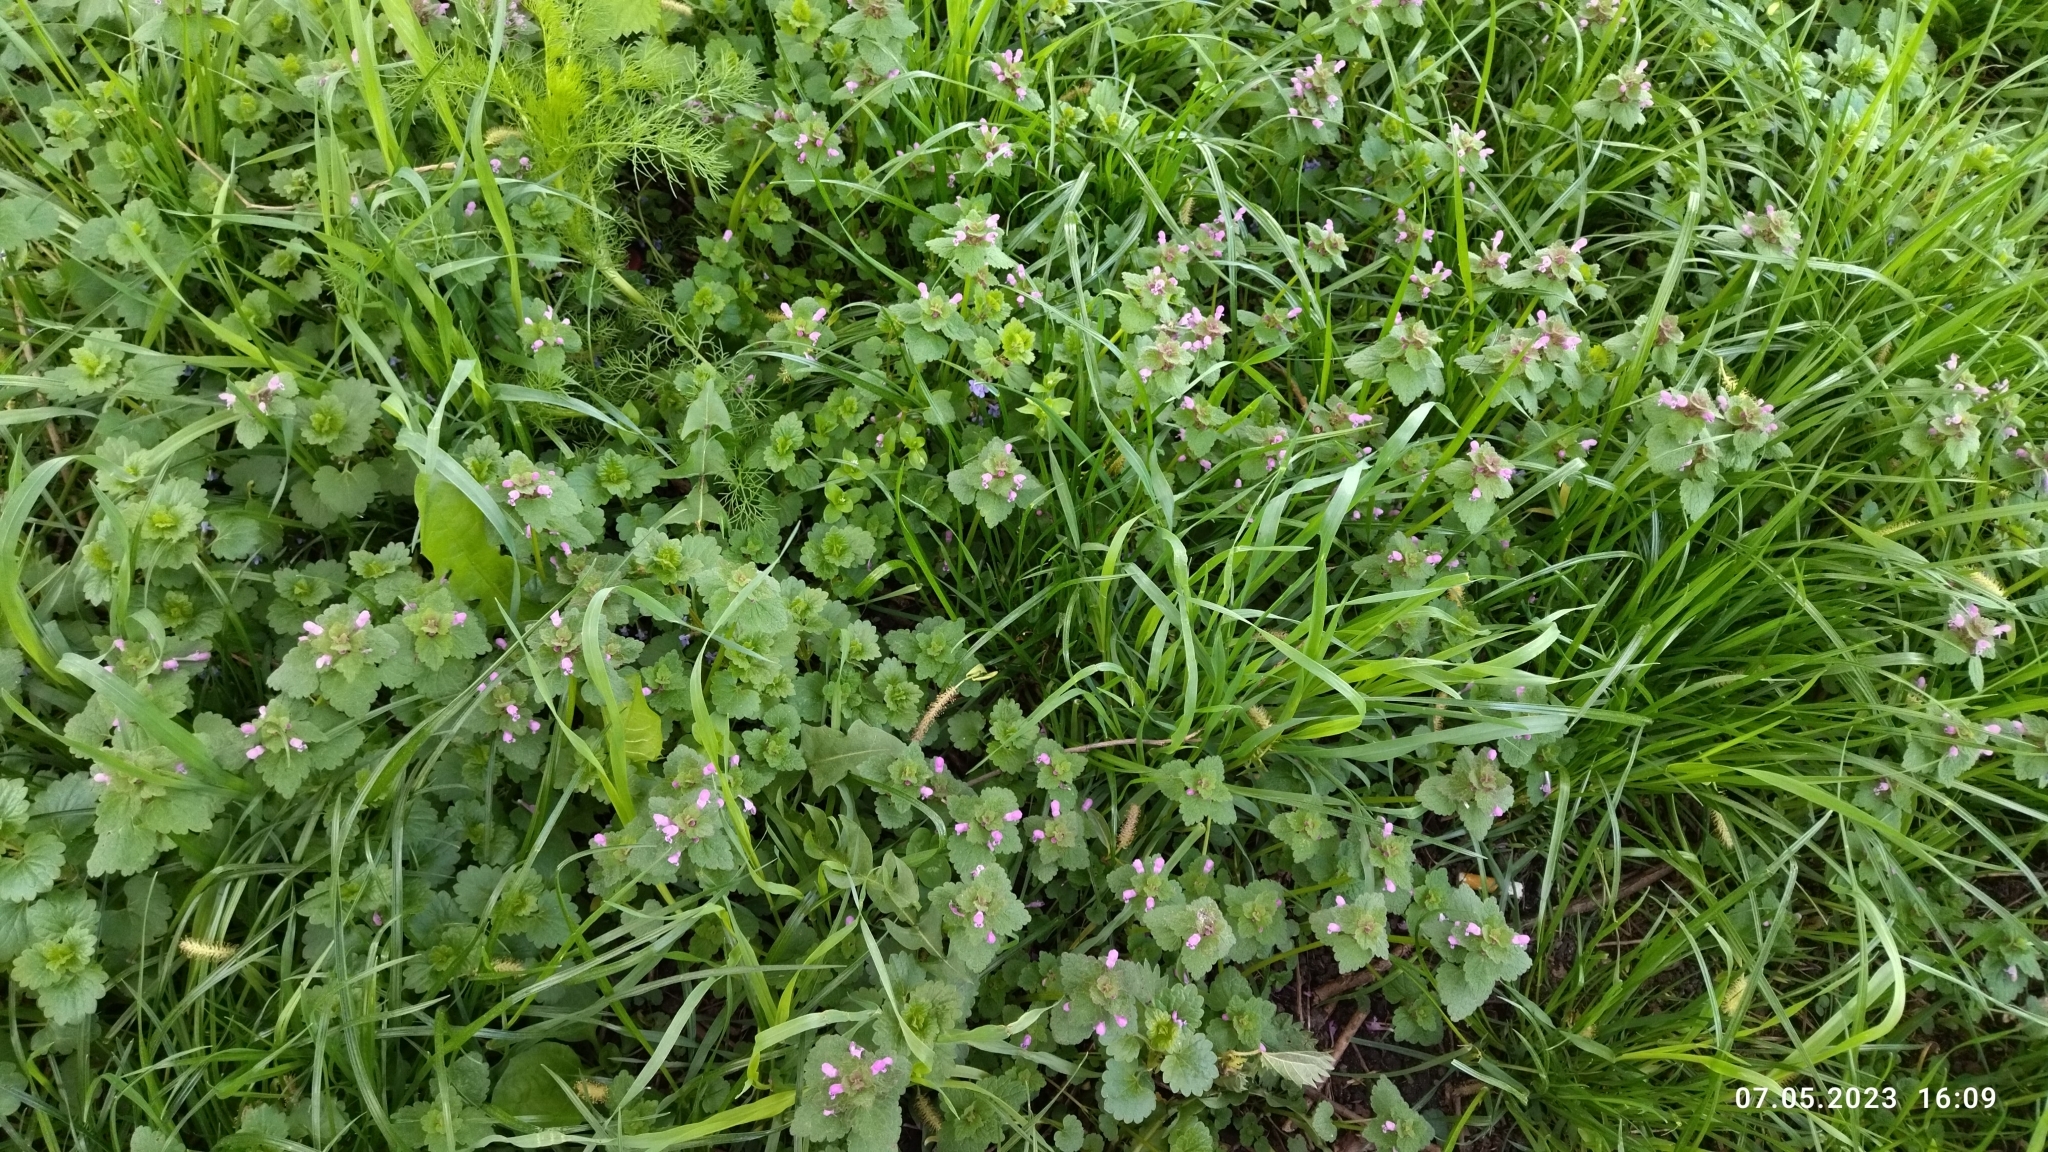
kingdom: Plantae
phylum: Tracheophyta
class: Magnoliopsida
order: Lamiales
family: Lamiaceae
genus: Lamium
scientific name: Lamium purpureum
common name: Red dead-nettle
